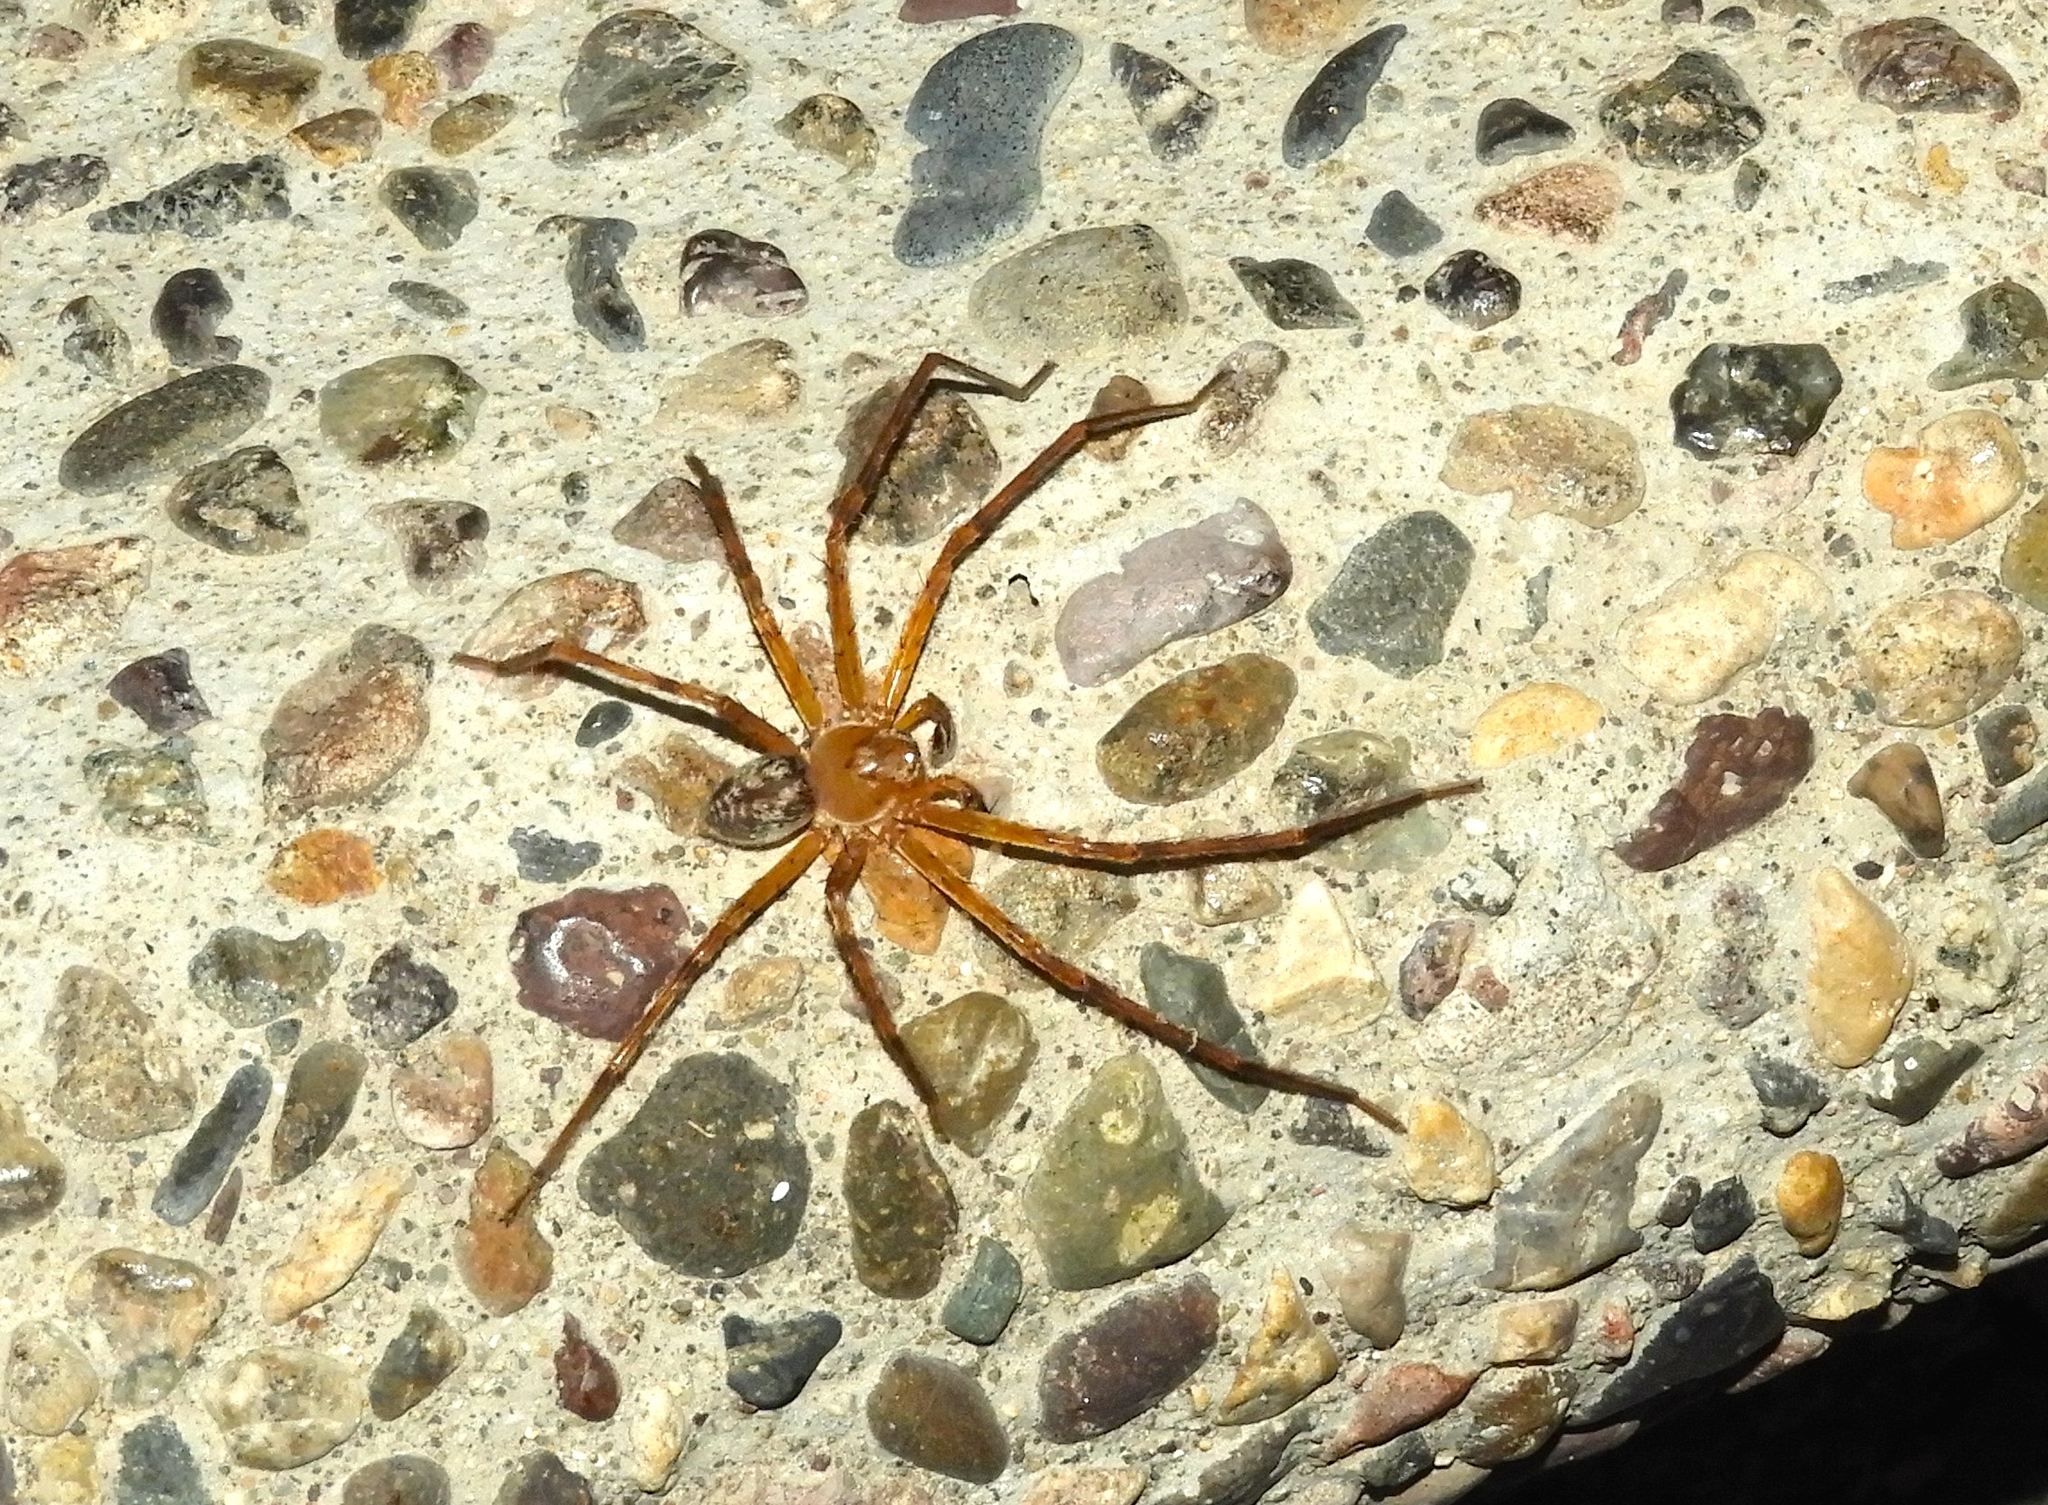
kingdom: Animalia
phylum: Arthropoda
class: Arachnida
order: Araneae
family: Sparassidae
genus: Curicaberis
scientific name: Curicaberis culiacan
